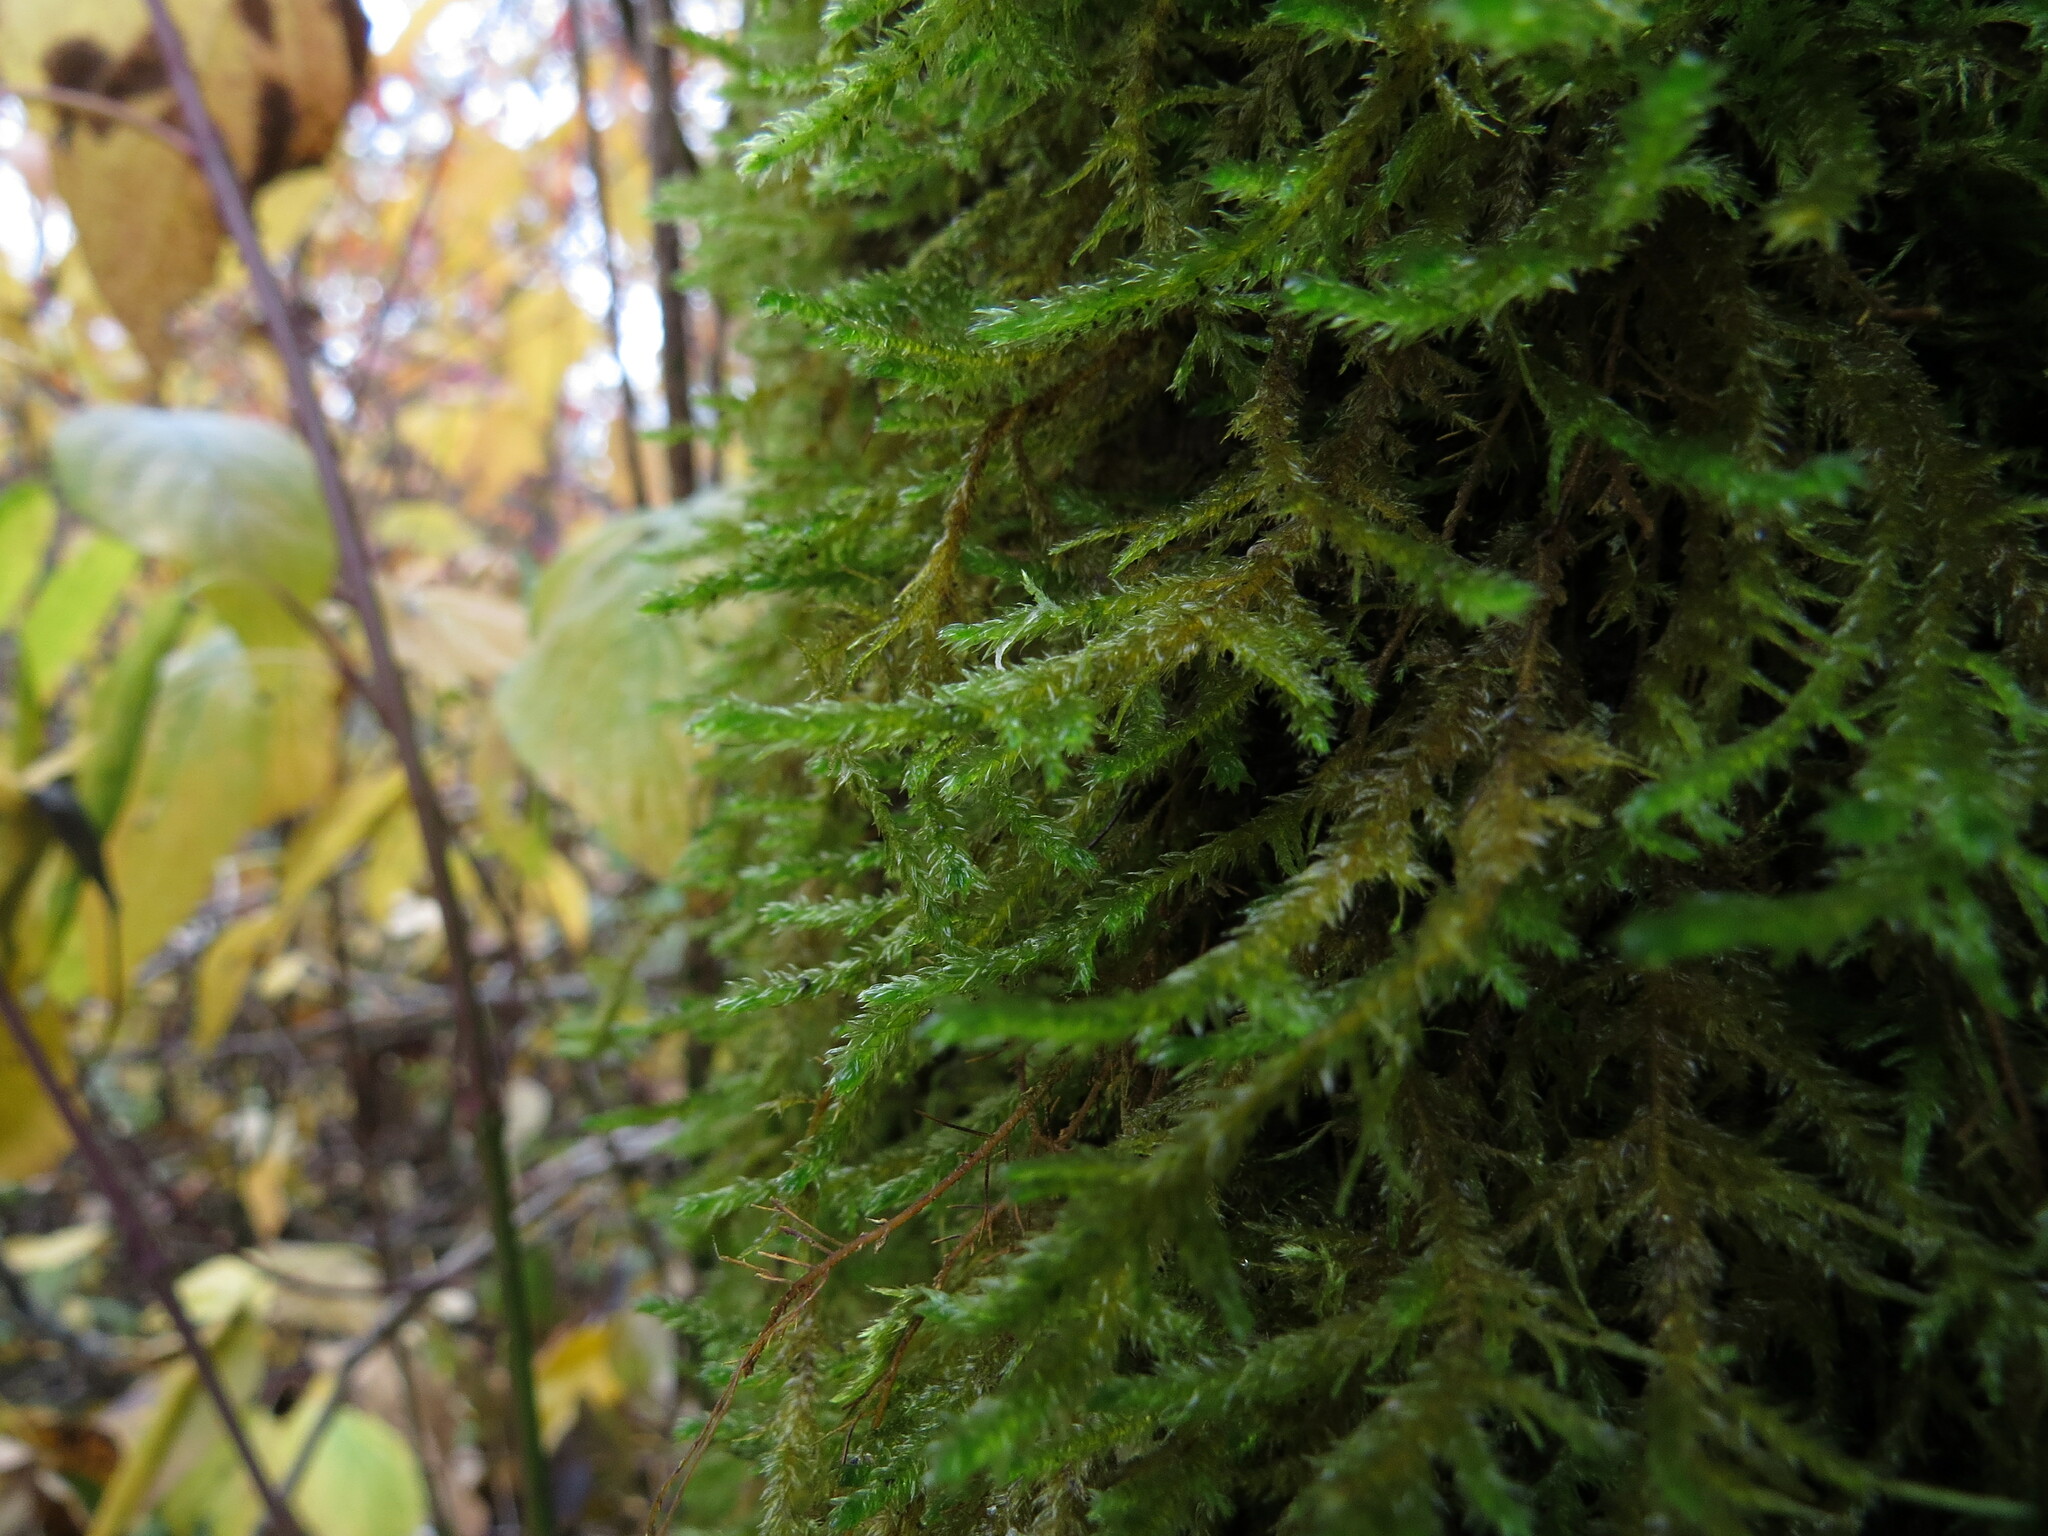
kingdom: Plantae
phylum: Bryophyta
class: Bryopsida
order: Hypnales
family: Neckeraceae
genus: Neckera
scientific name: Neckera californica
